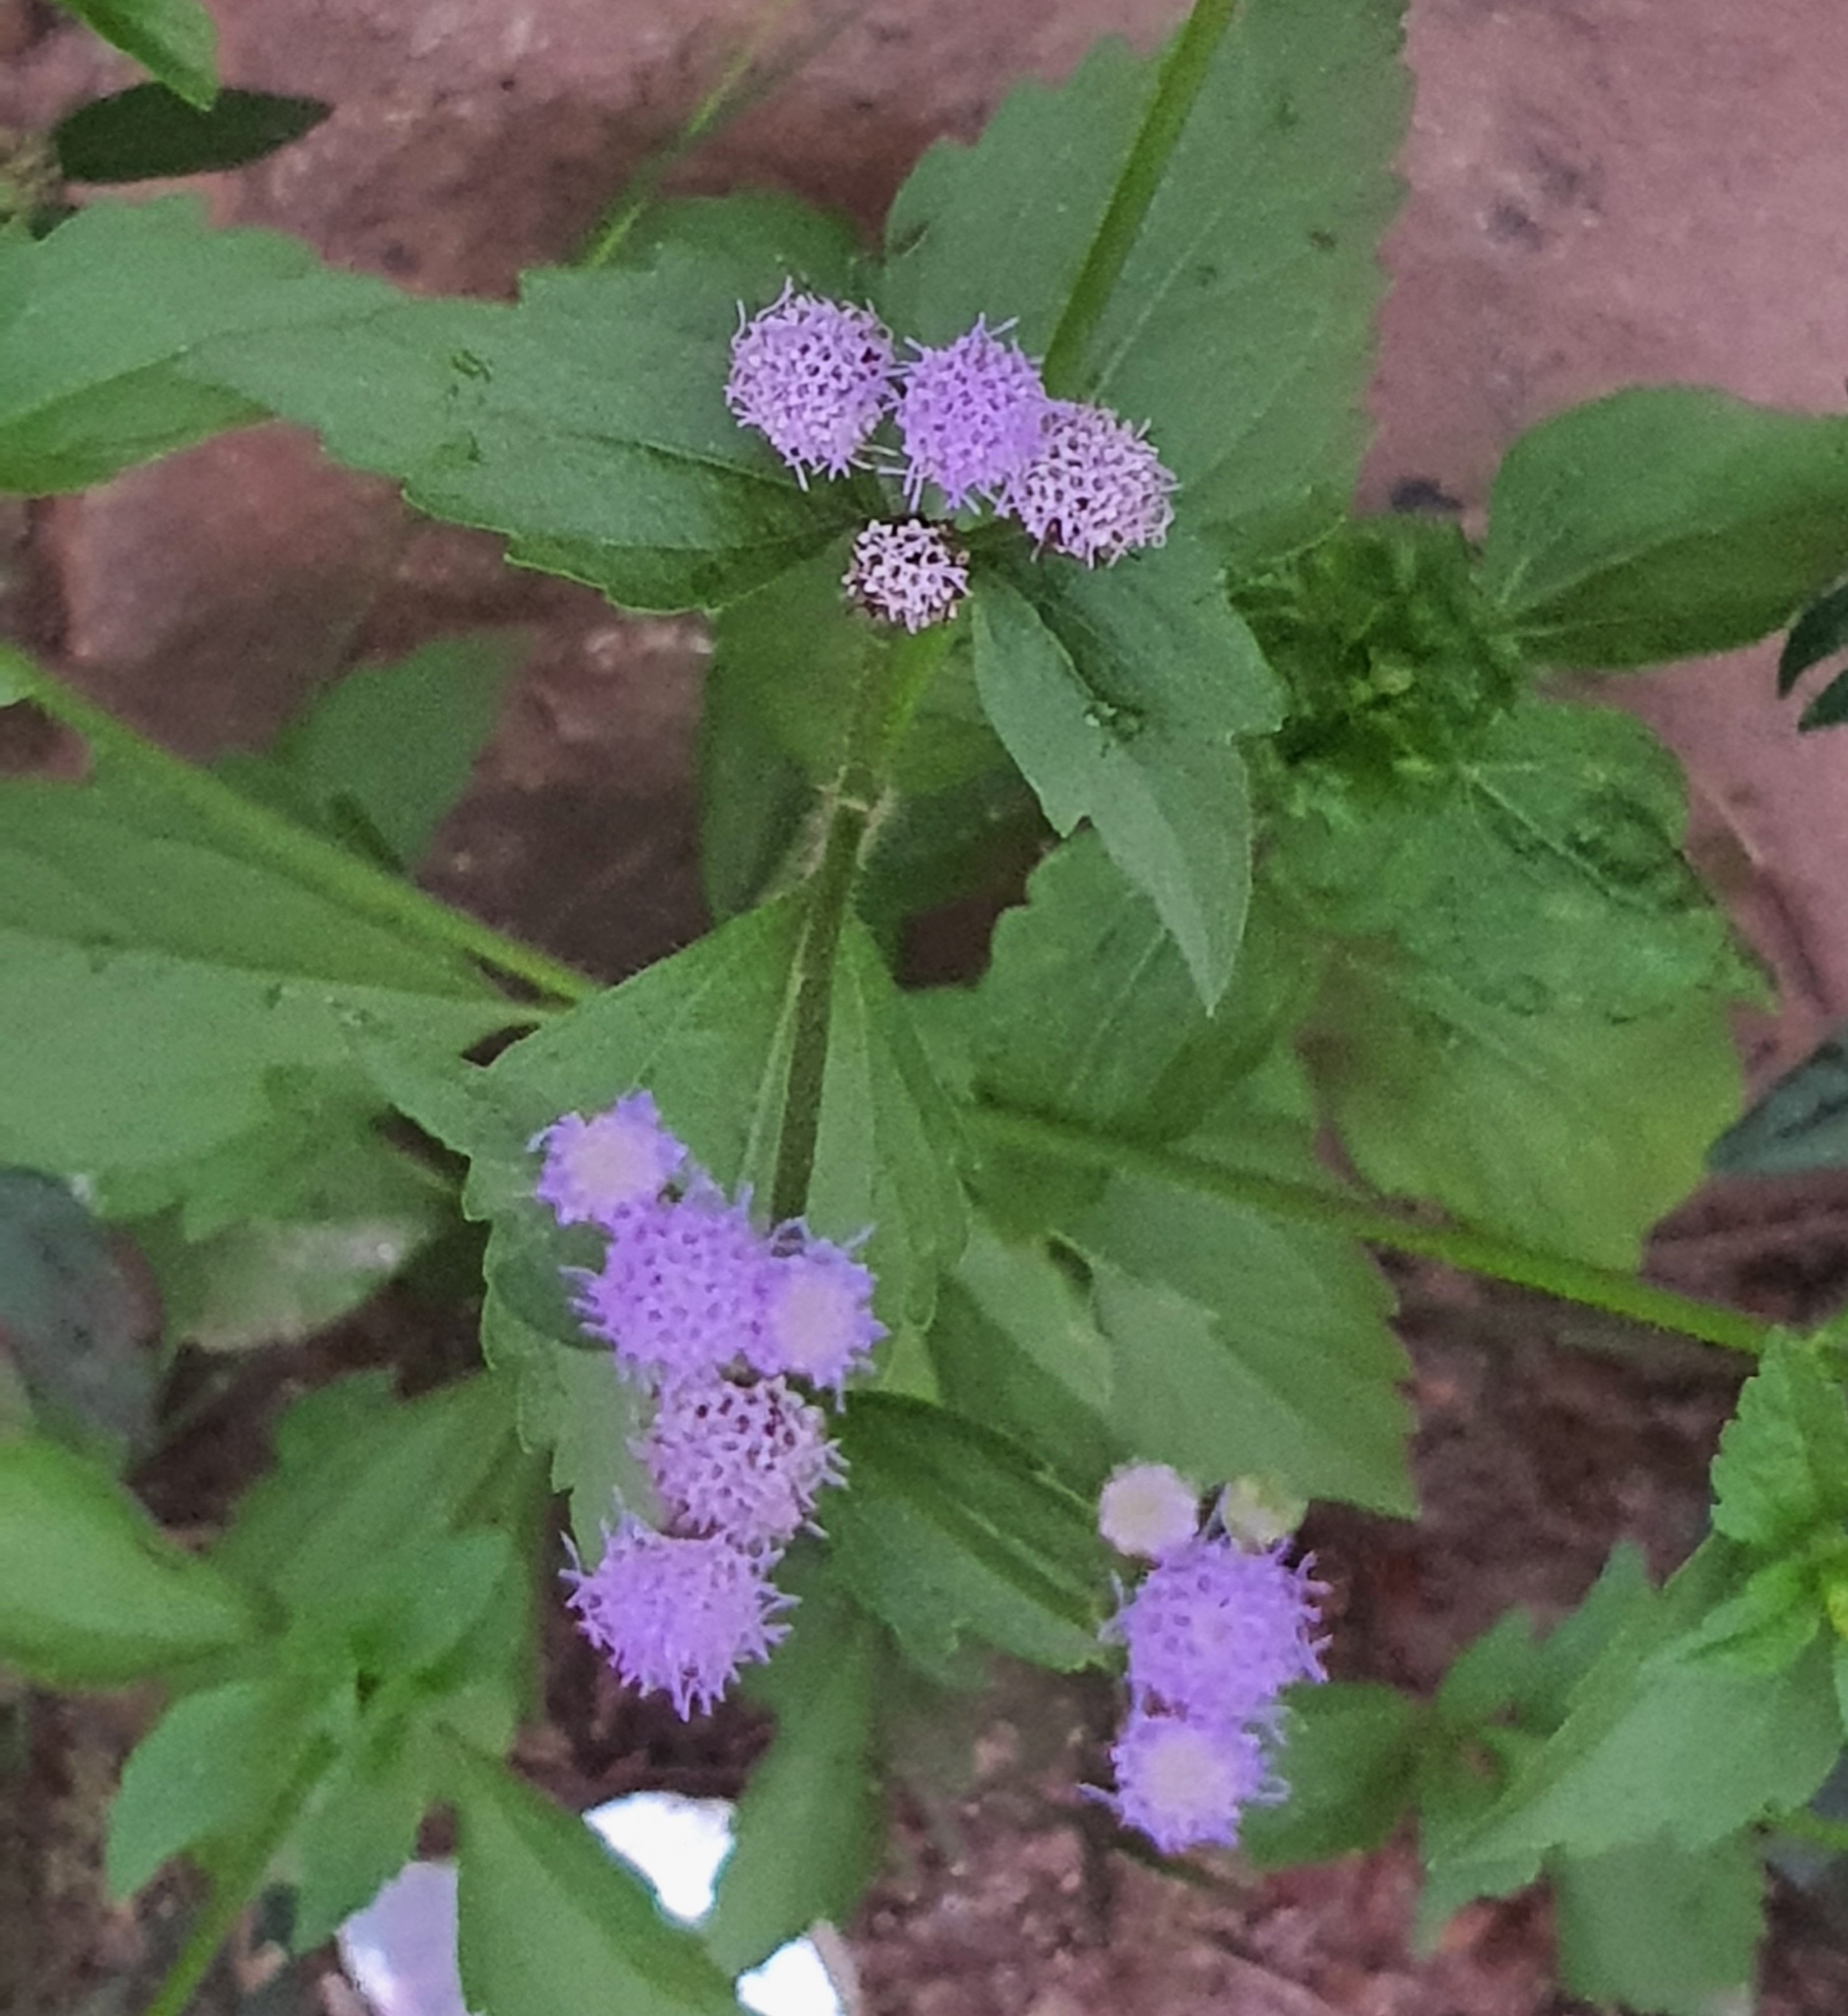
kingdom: Plantae
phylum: Tracheophyta
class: Magnoliopsida
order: Asterales
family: Asteraceae
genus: Praxelis
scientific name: Praxelis clematidea
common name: Praxelis
